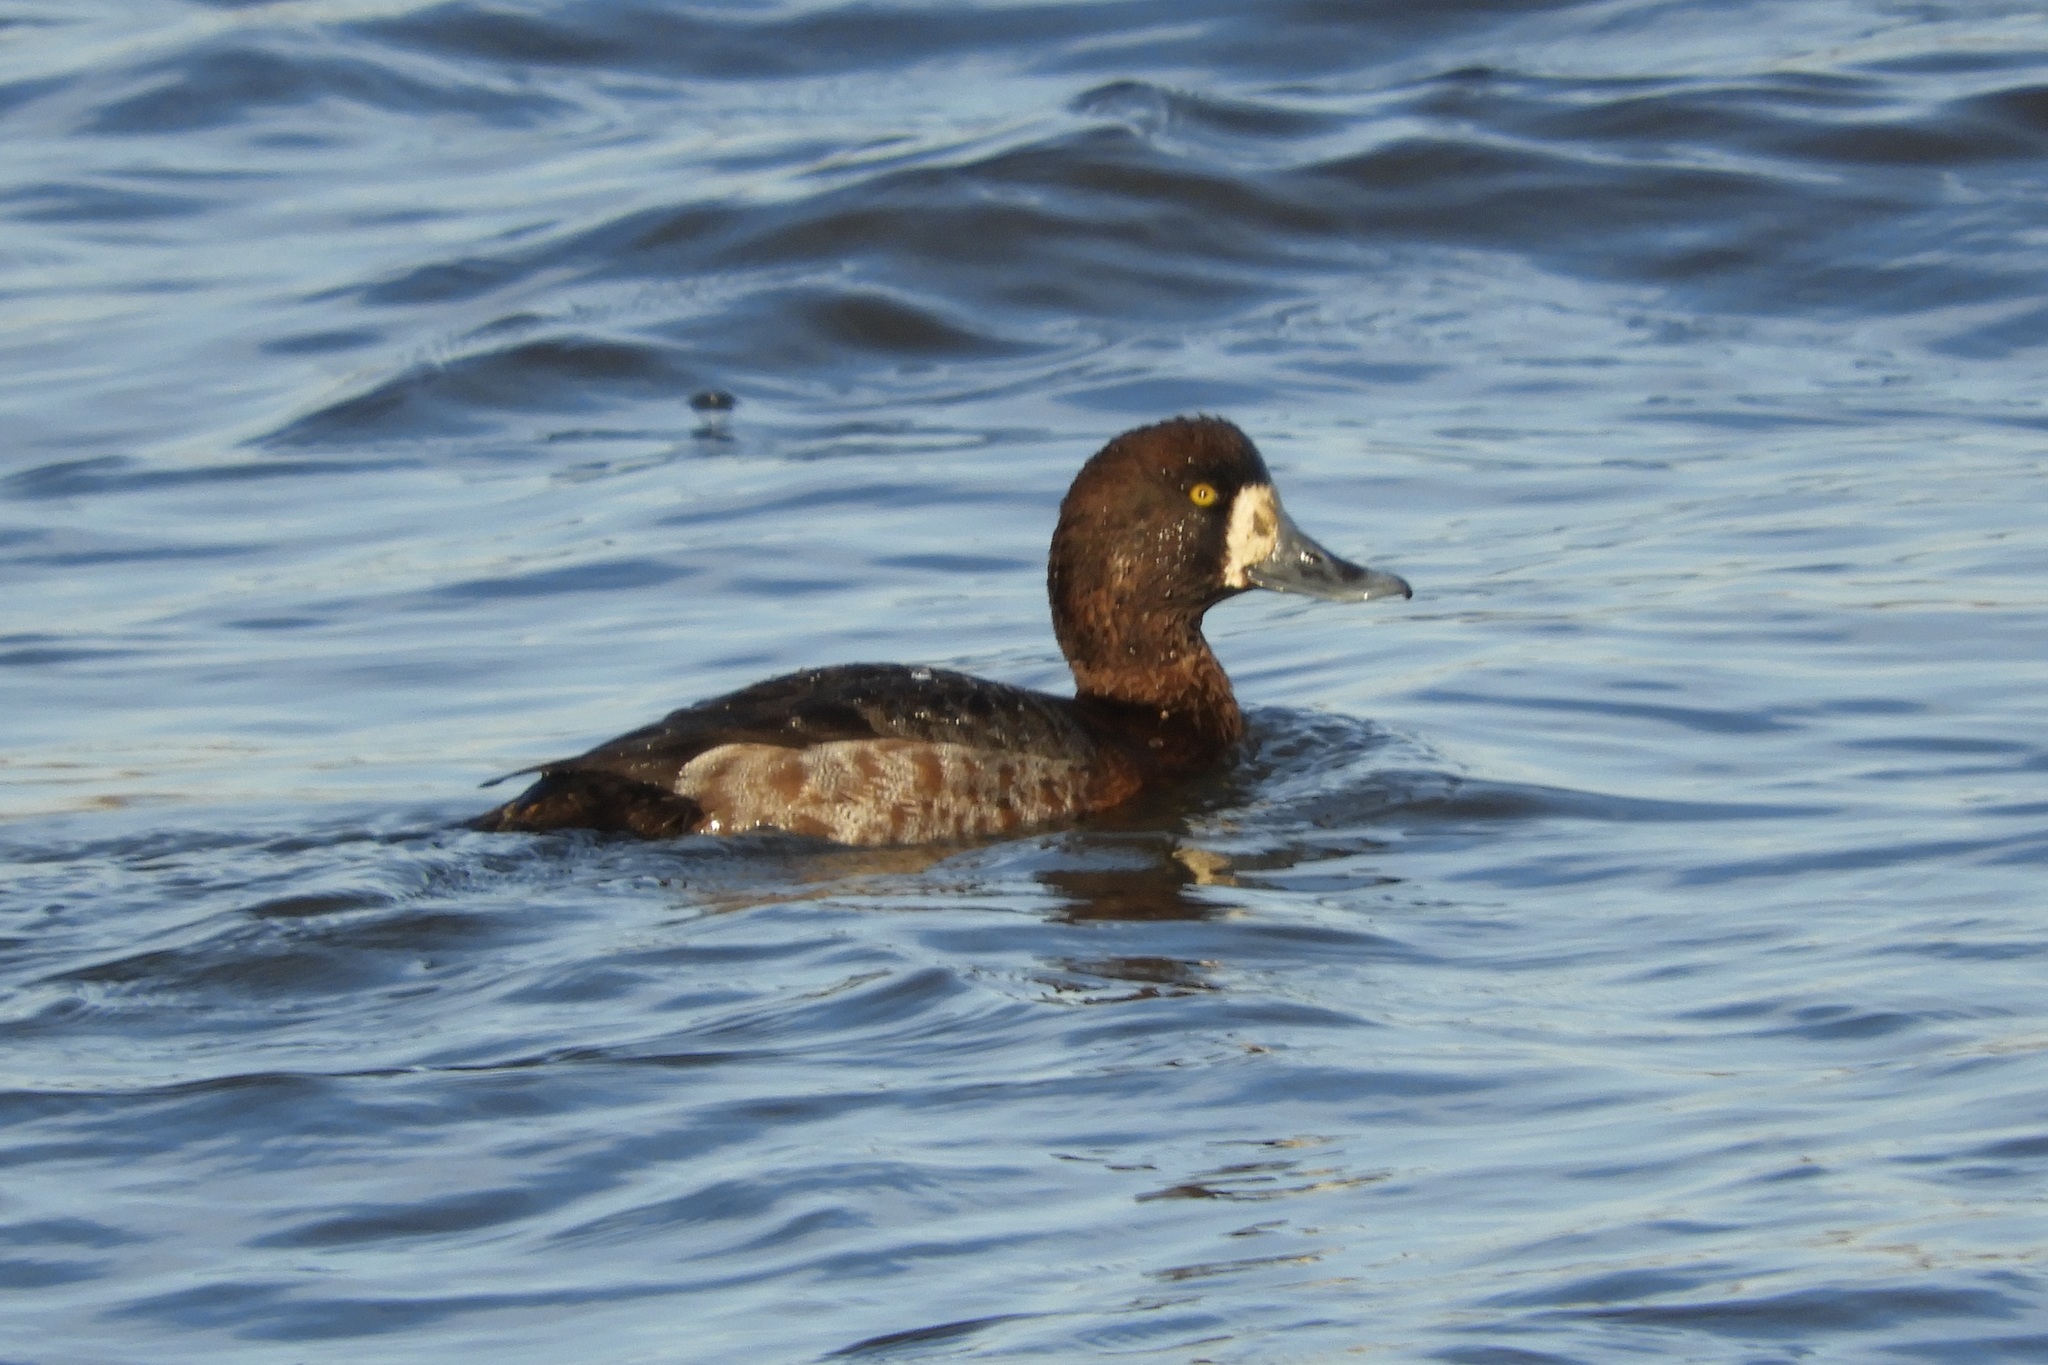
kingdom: Animalia
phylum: Chordata
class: Aves
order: Anseriformes
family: Anatidae
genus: Aythya
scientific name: Aythya marila
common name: Greater scaup
